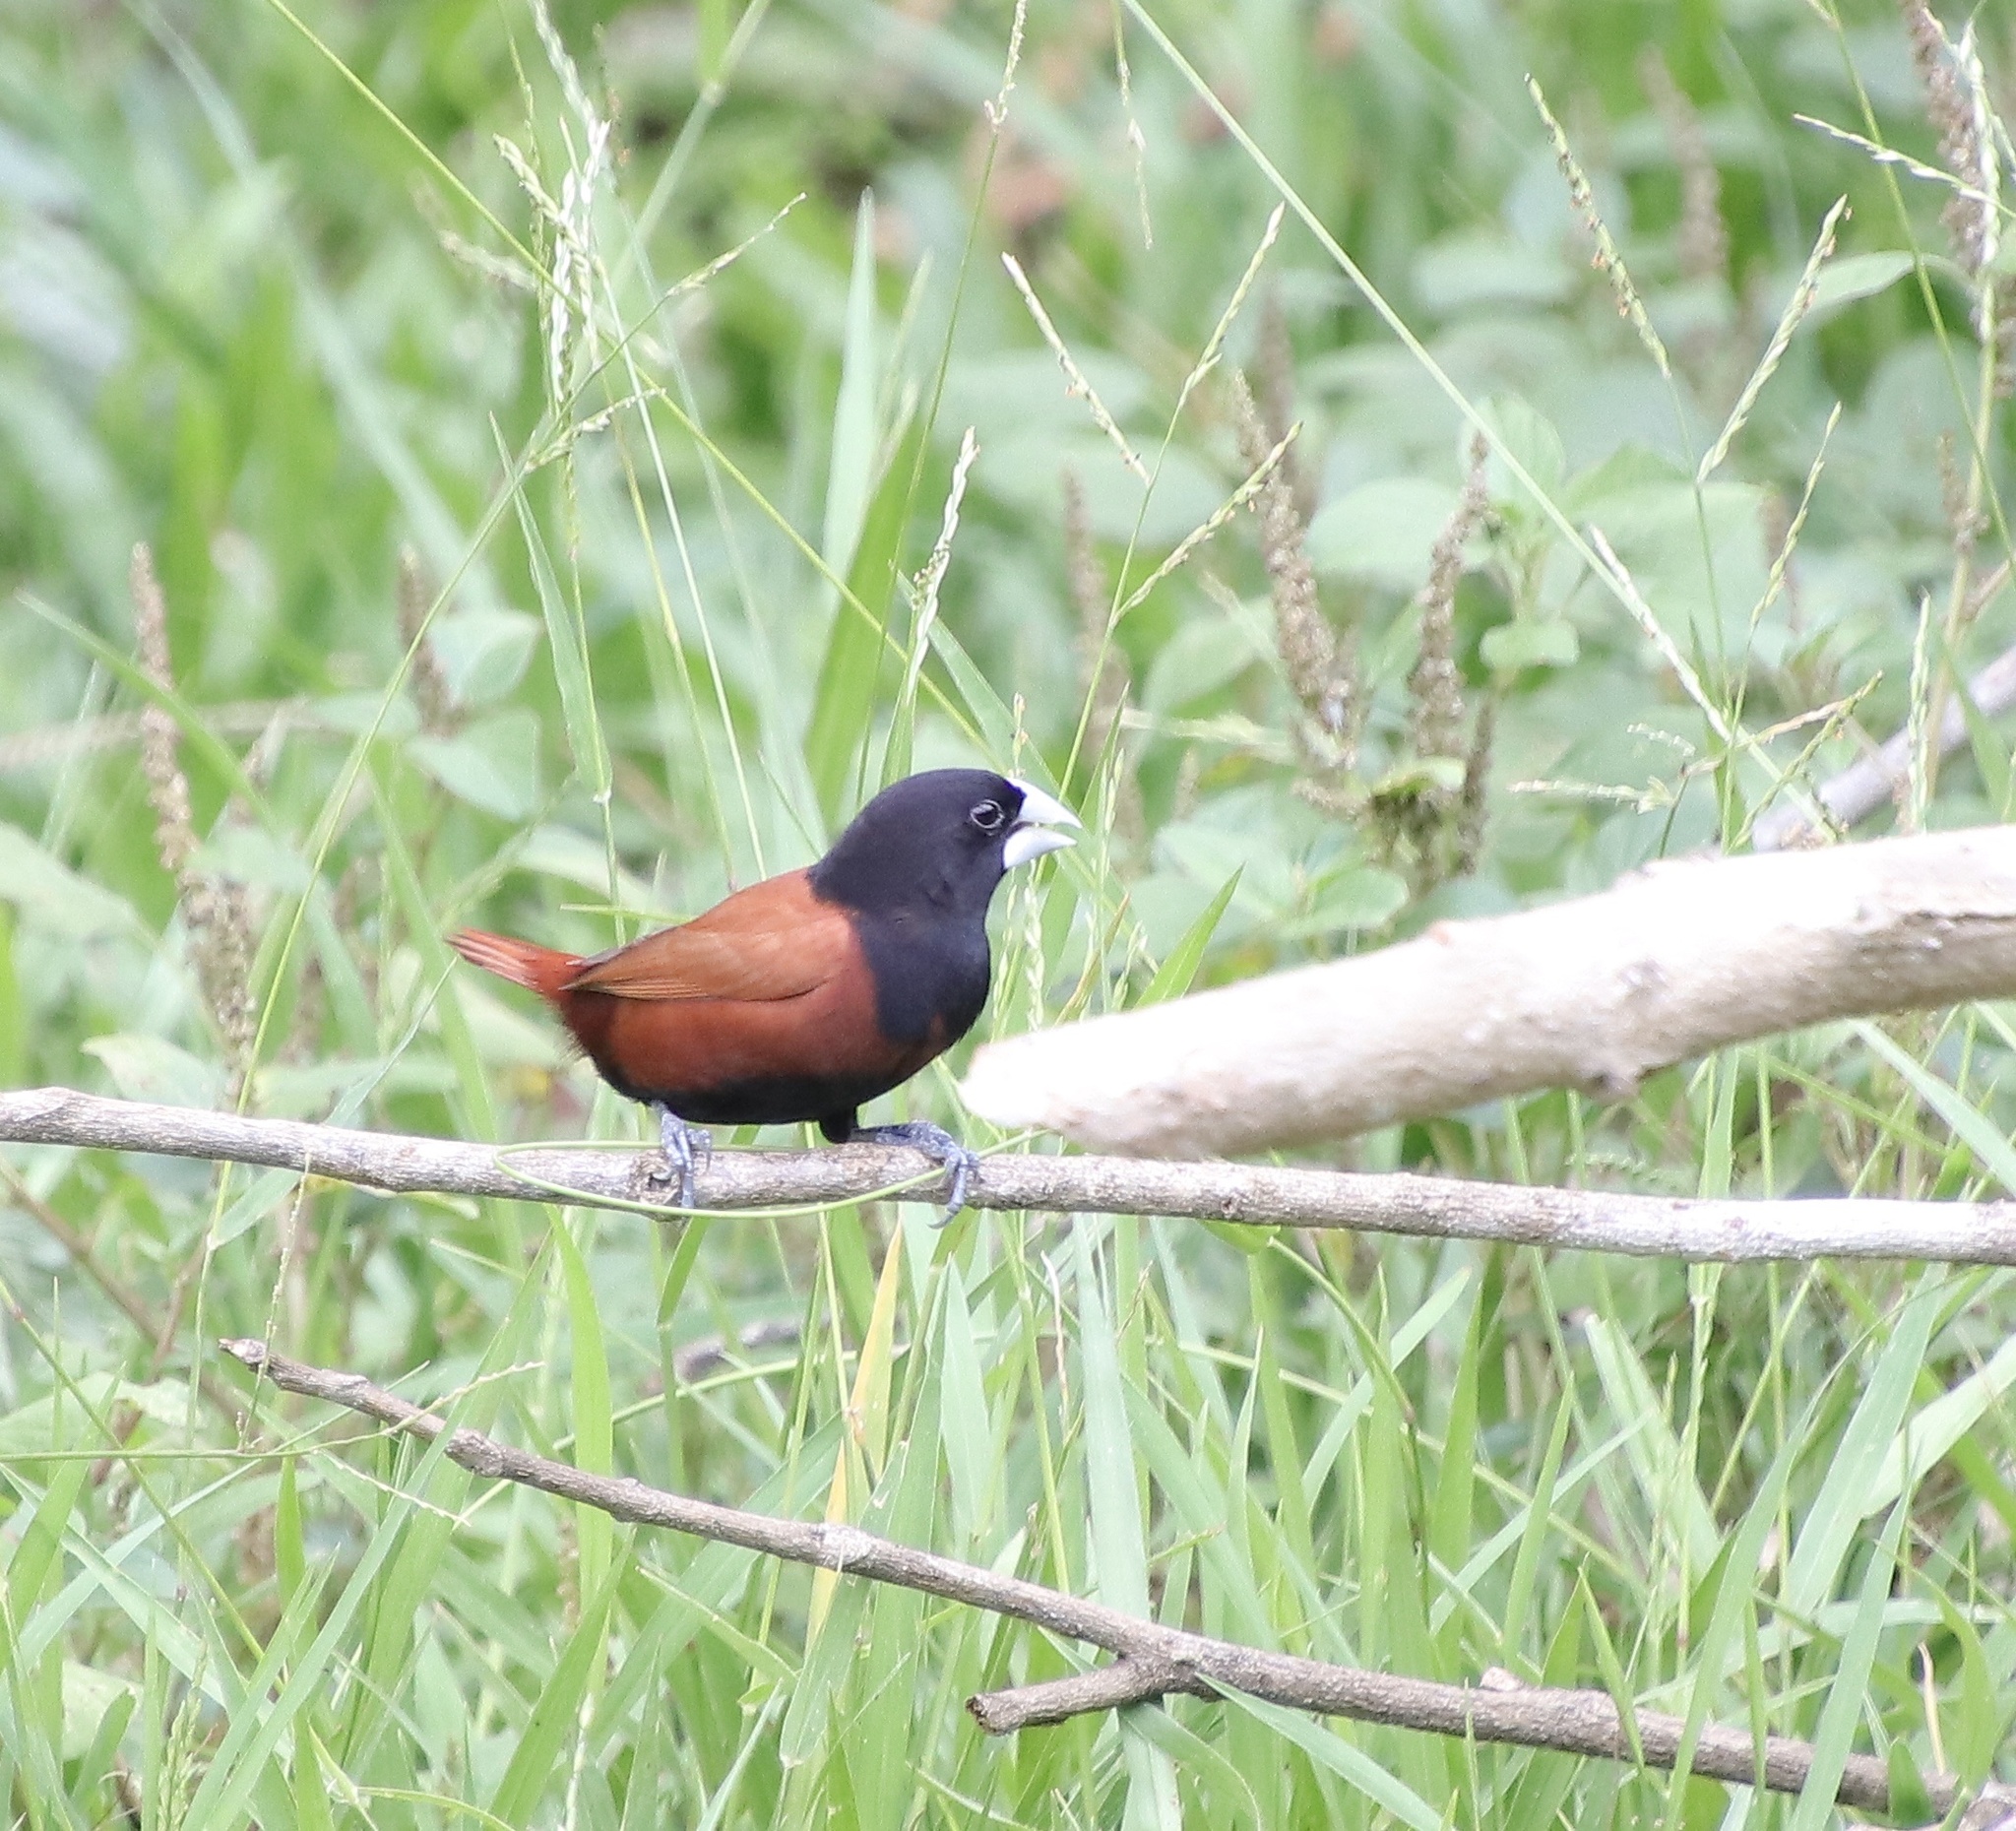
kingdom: Animalia
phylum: Chordata
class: Aves
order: Passeriformes
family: Estrildidae
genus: Lonchura
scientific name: Lonchura atricapilla
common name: Chestnut munia
